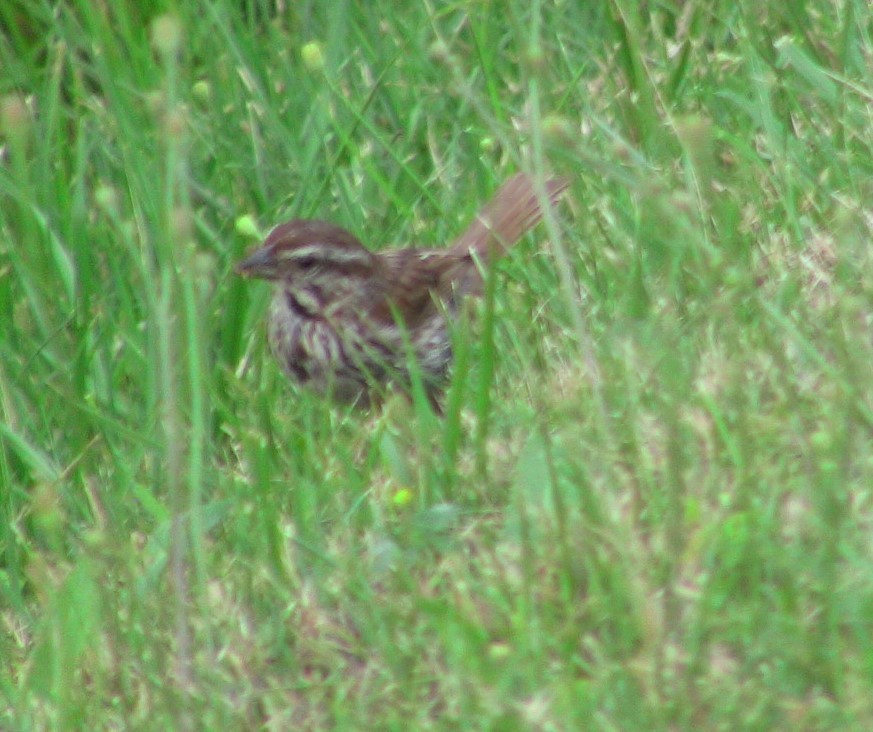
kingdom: Animalia
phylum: Chordata
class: Aves
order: Passeriformes
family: Passerellidae
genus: Melospiza
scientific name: Melospiza melodia
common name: Song sparrow
